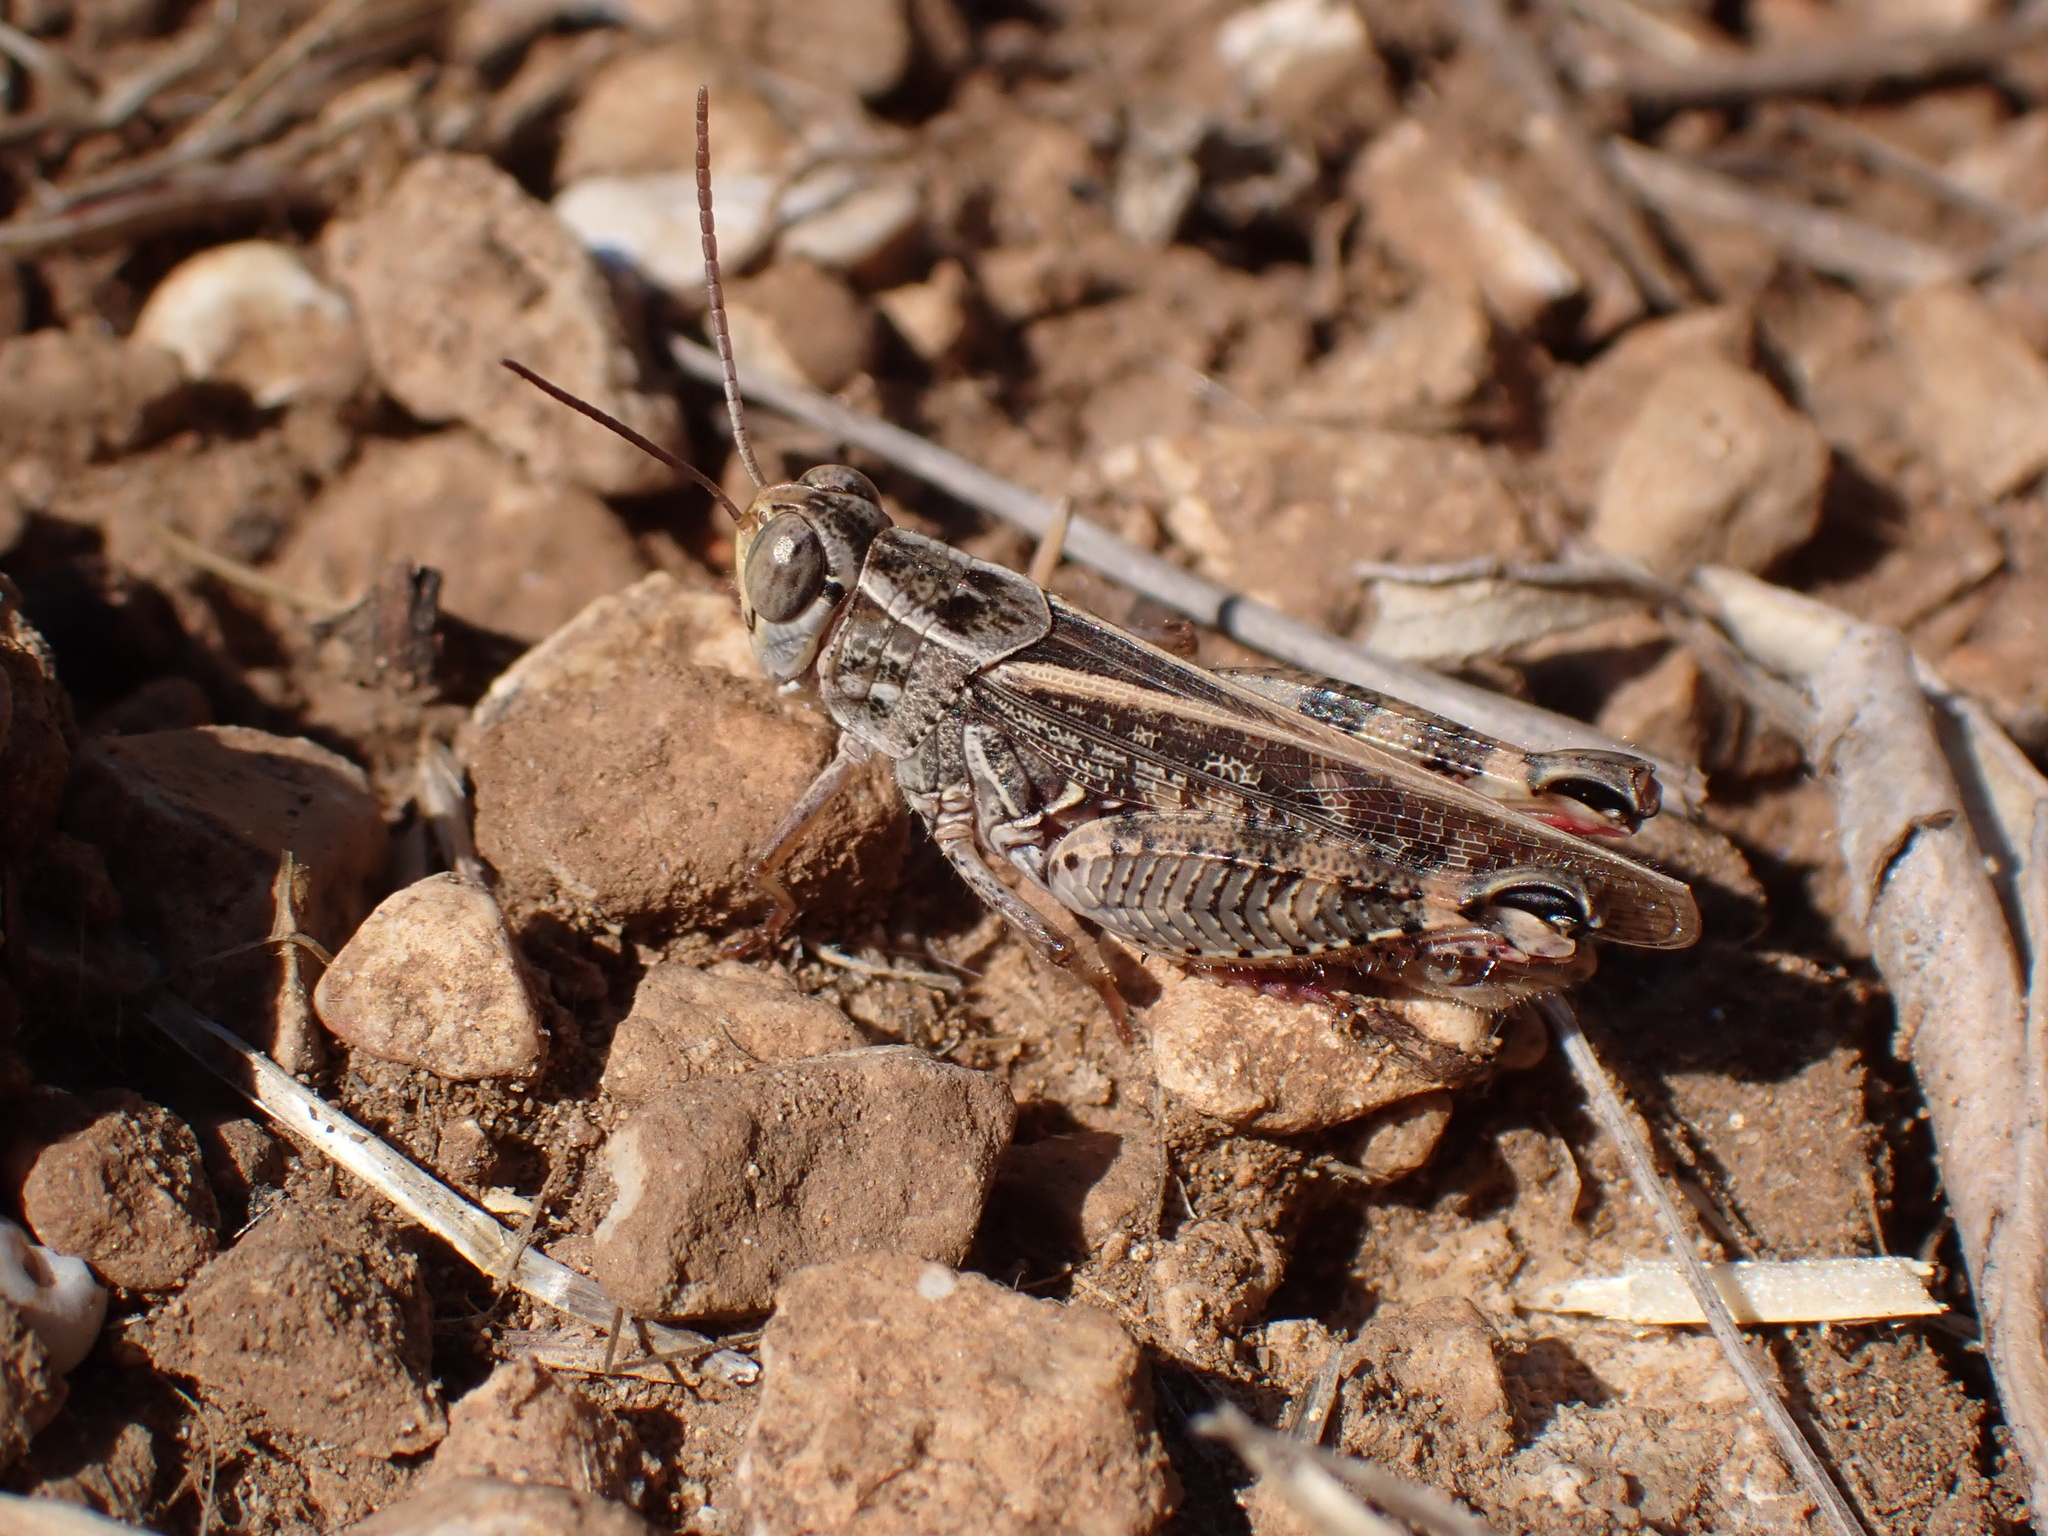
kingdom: Animalia
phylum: Arthropoda
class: Insecta
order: Orthoptera
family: Acrididae
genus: Calliptamus
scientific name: Calliptamus italicus
